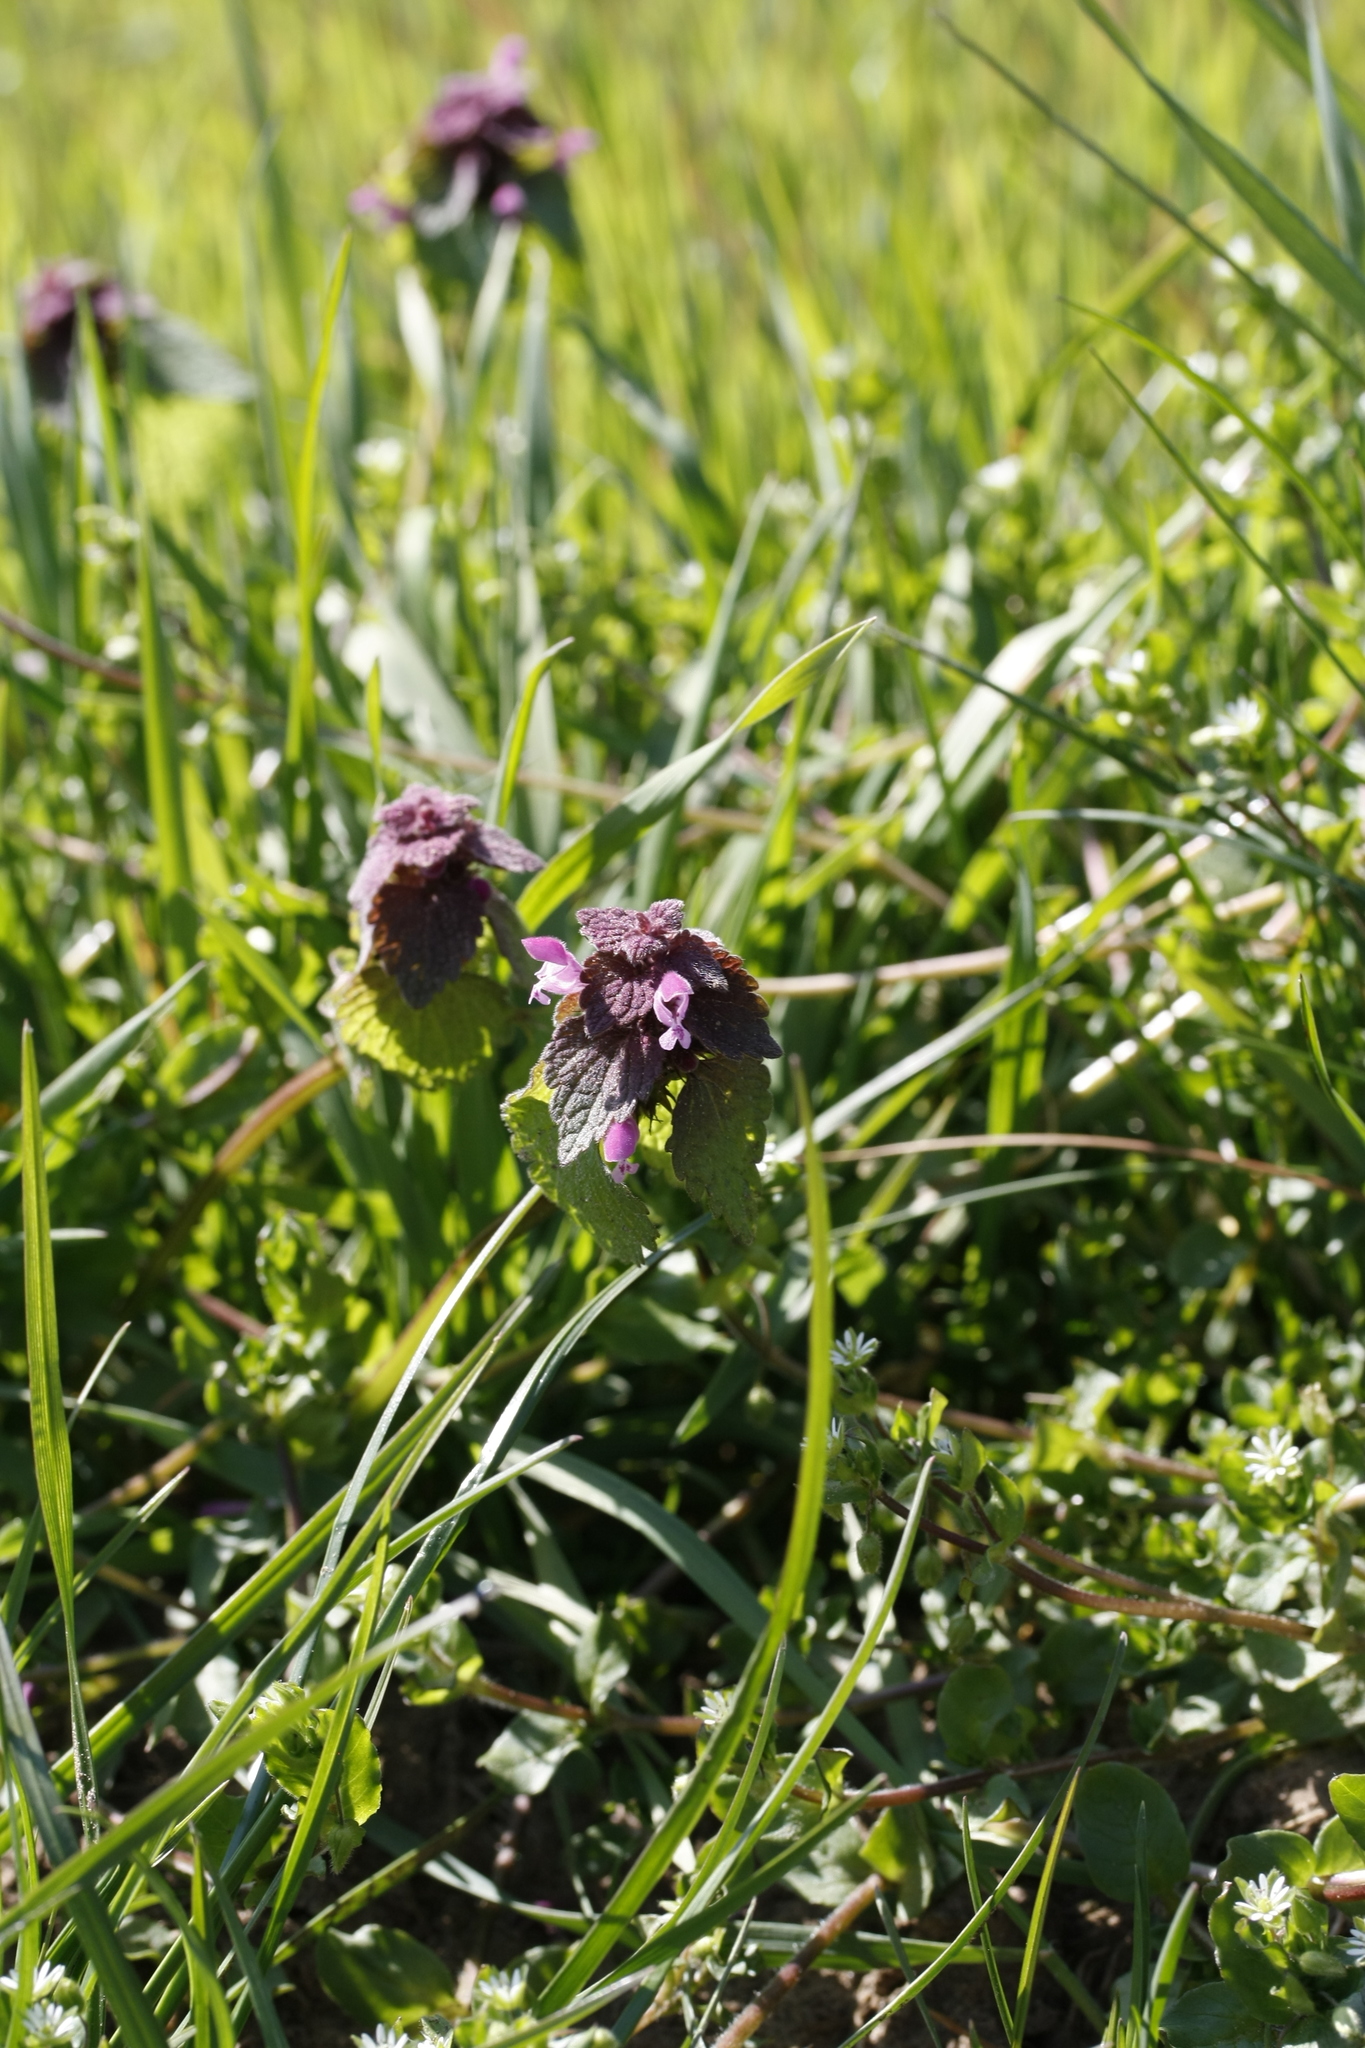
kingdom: Plantae
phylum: Tracheophyta
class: Magnoliopsida
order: Lamiales
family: Lamiaceae
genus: Lamium
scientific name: Lamium purpureum
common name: Red dead-nettle
